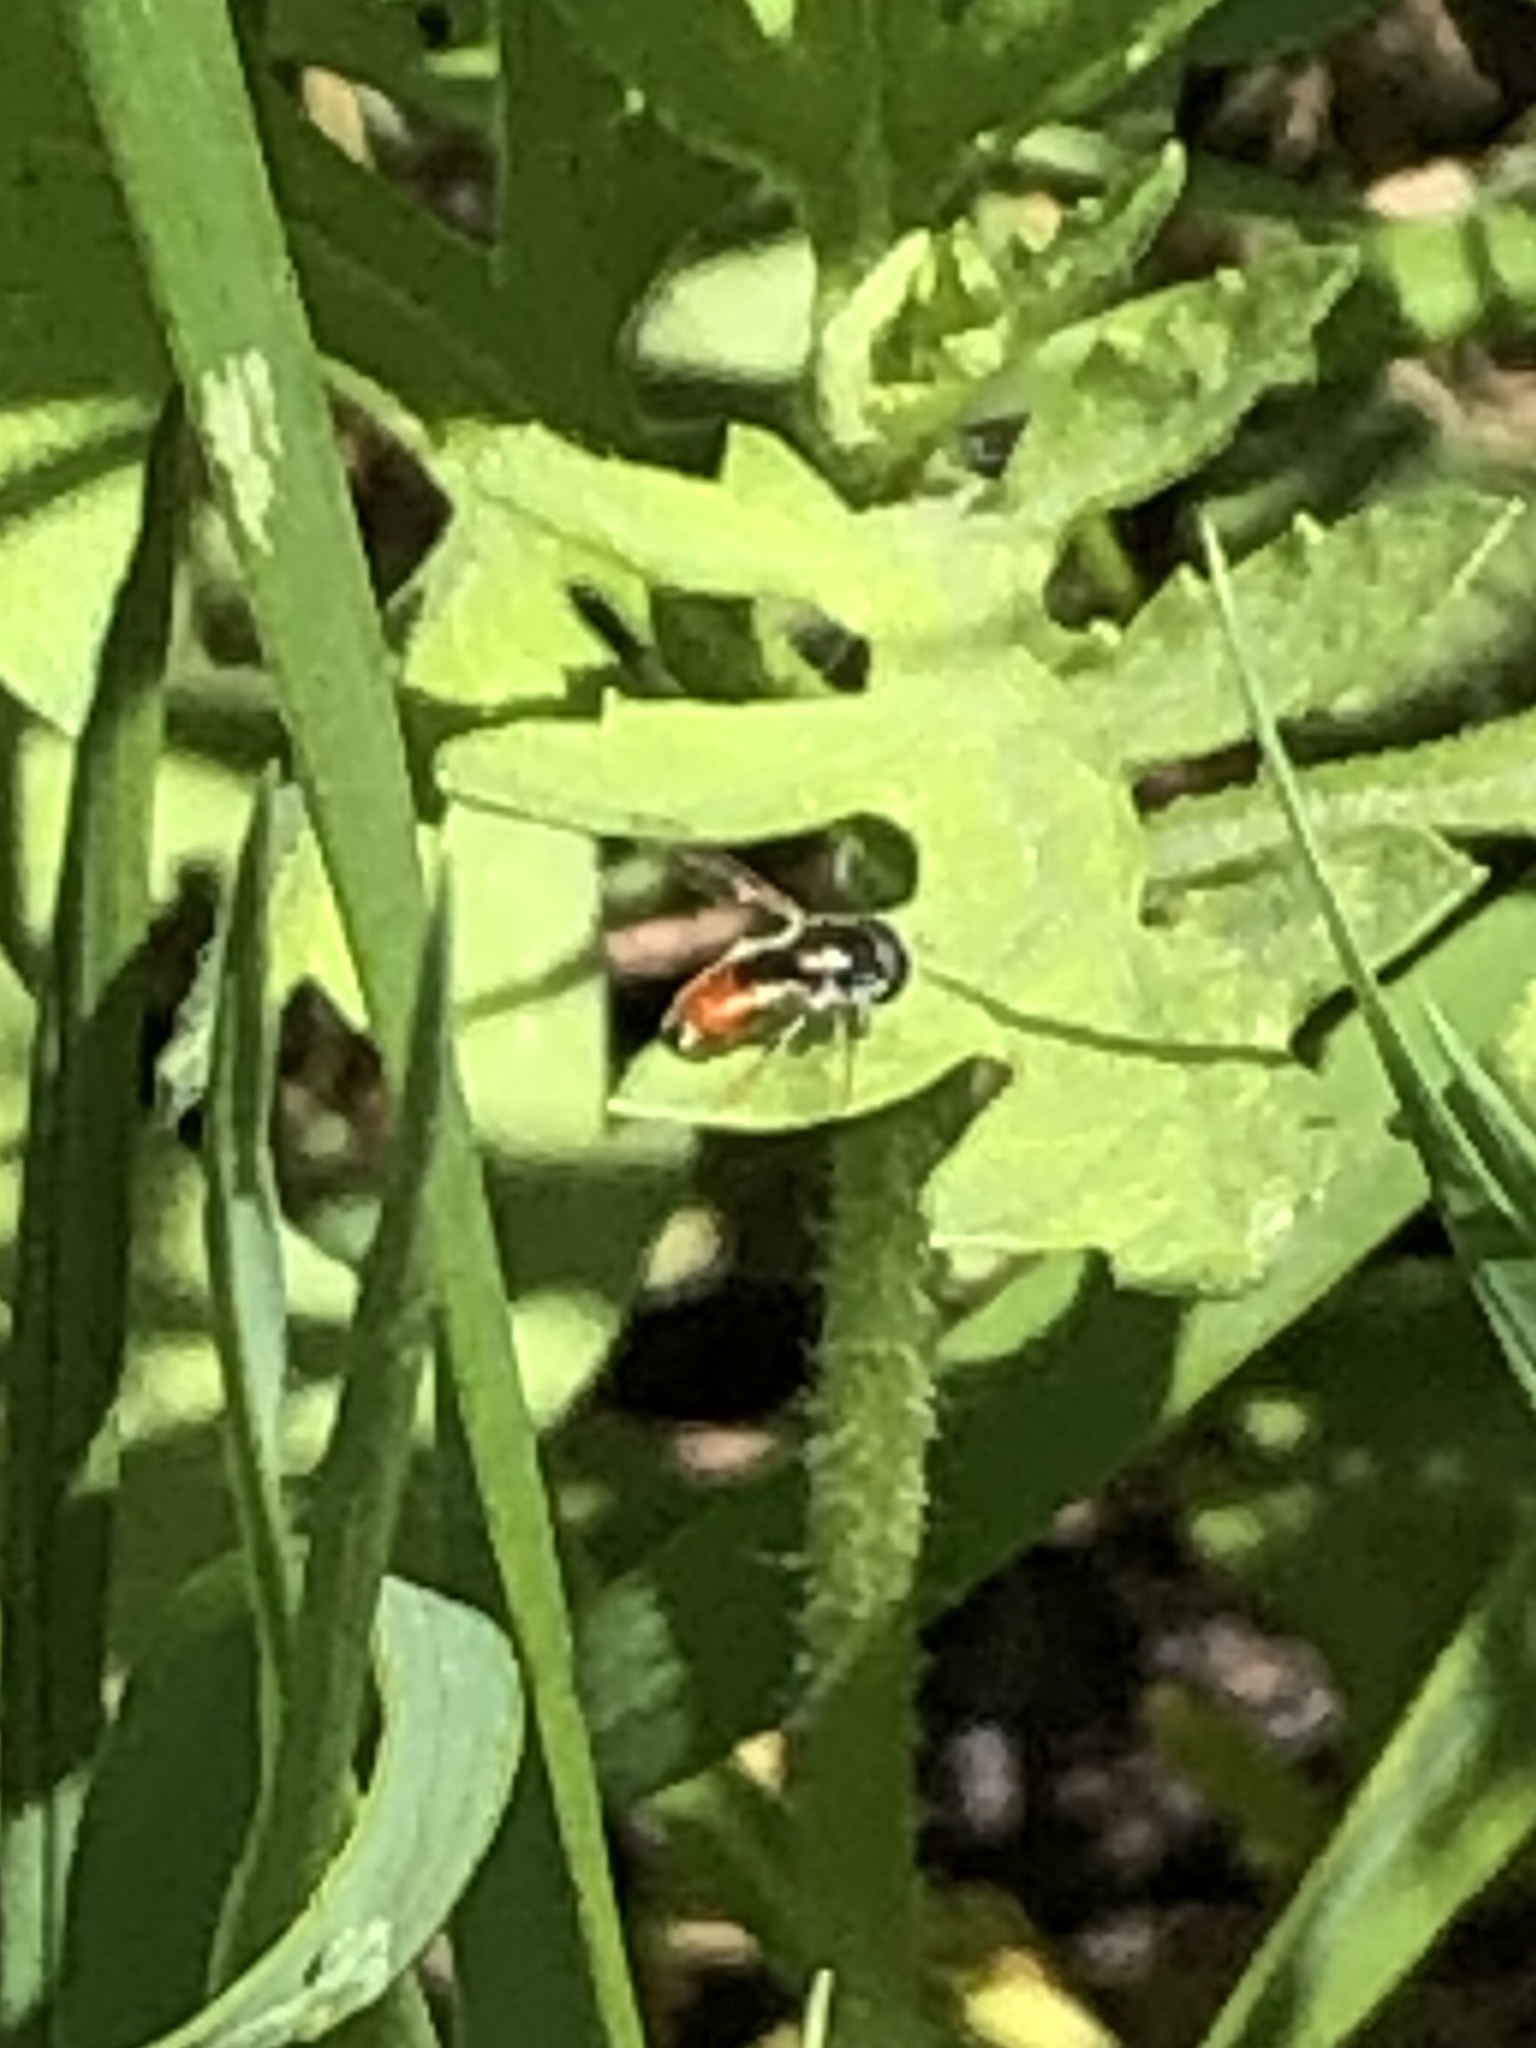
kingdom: Animalia
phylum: Arthropoda
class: Insecta
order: Diptera
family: Syrphidae
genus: Paragus
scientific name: Paragus haemorrhous
